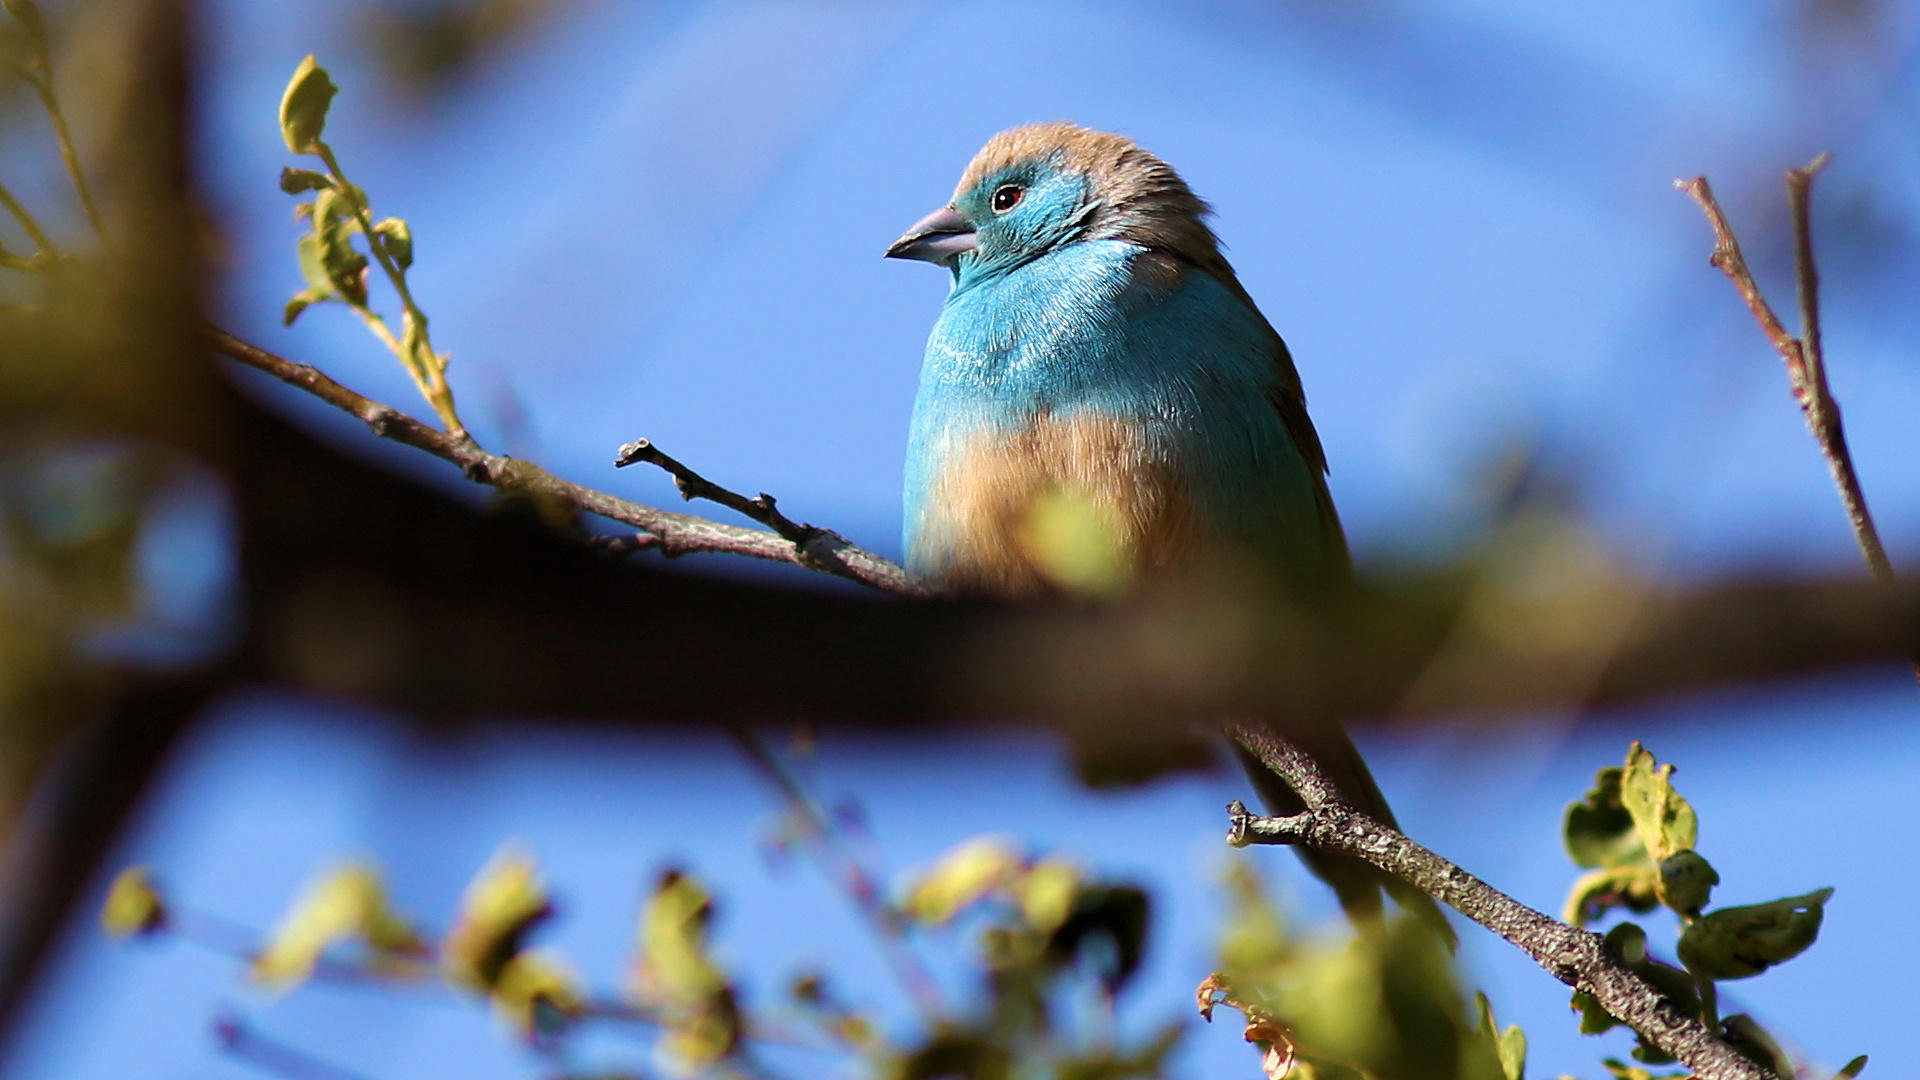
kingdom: Animalia
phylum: Chordata
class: Aves
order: Passeriformes
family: Estrildidae
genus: Uraeginthus
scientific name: Uraeginthus angolensis
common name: Blue waxbill
